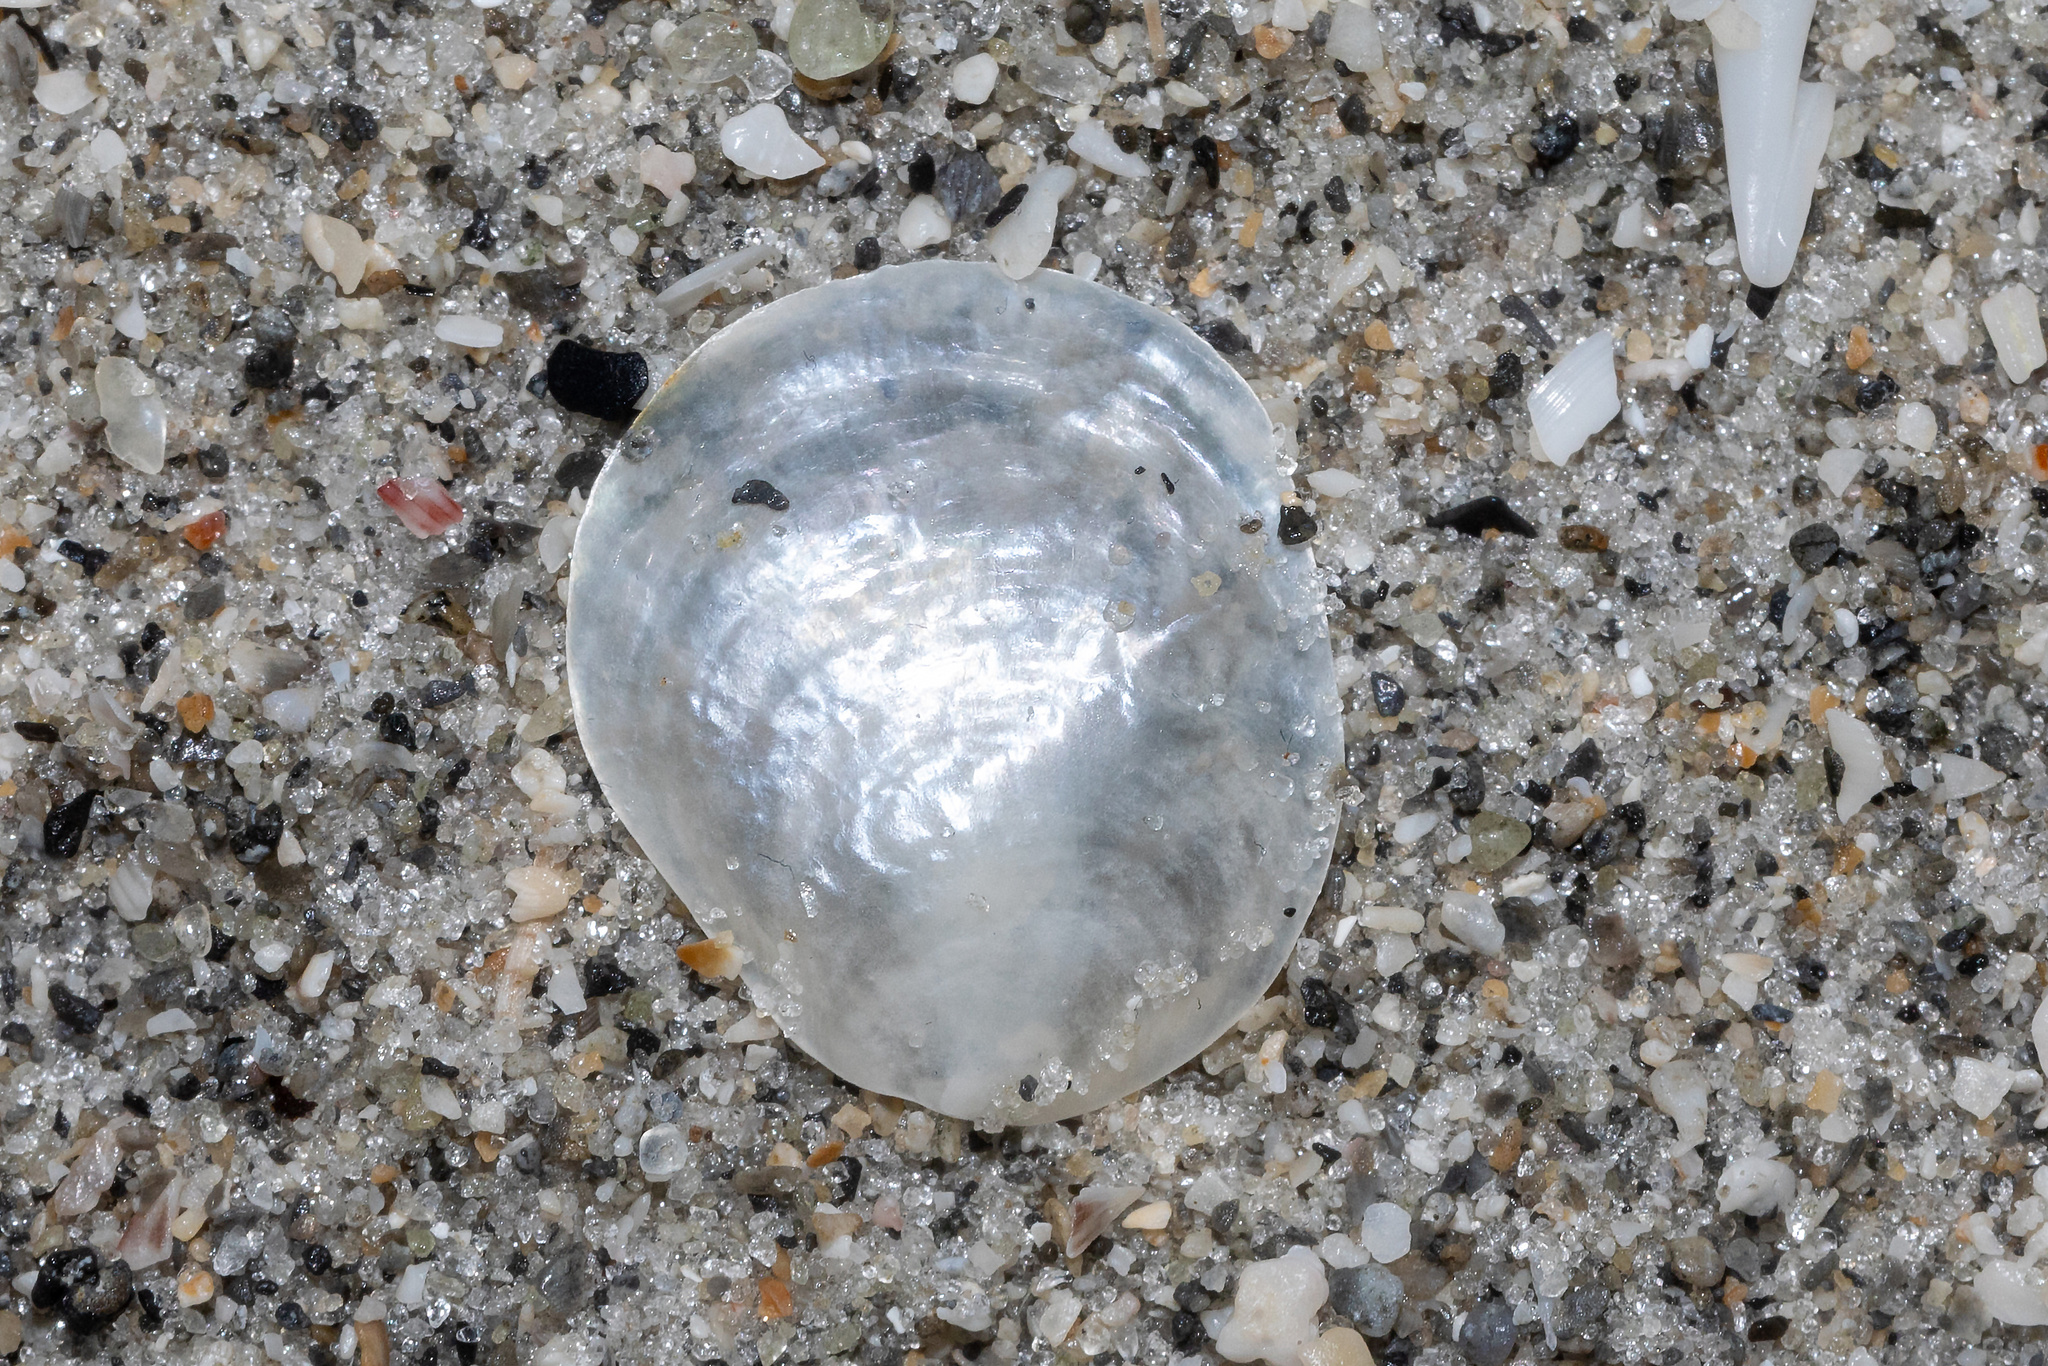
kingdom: Animalia
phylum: Mollusca
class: Bivalvia
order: Pectinida
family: Anomiidae
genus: Anomia
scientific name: Anomia simplex
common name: Common jingle shell
